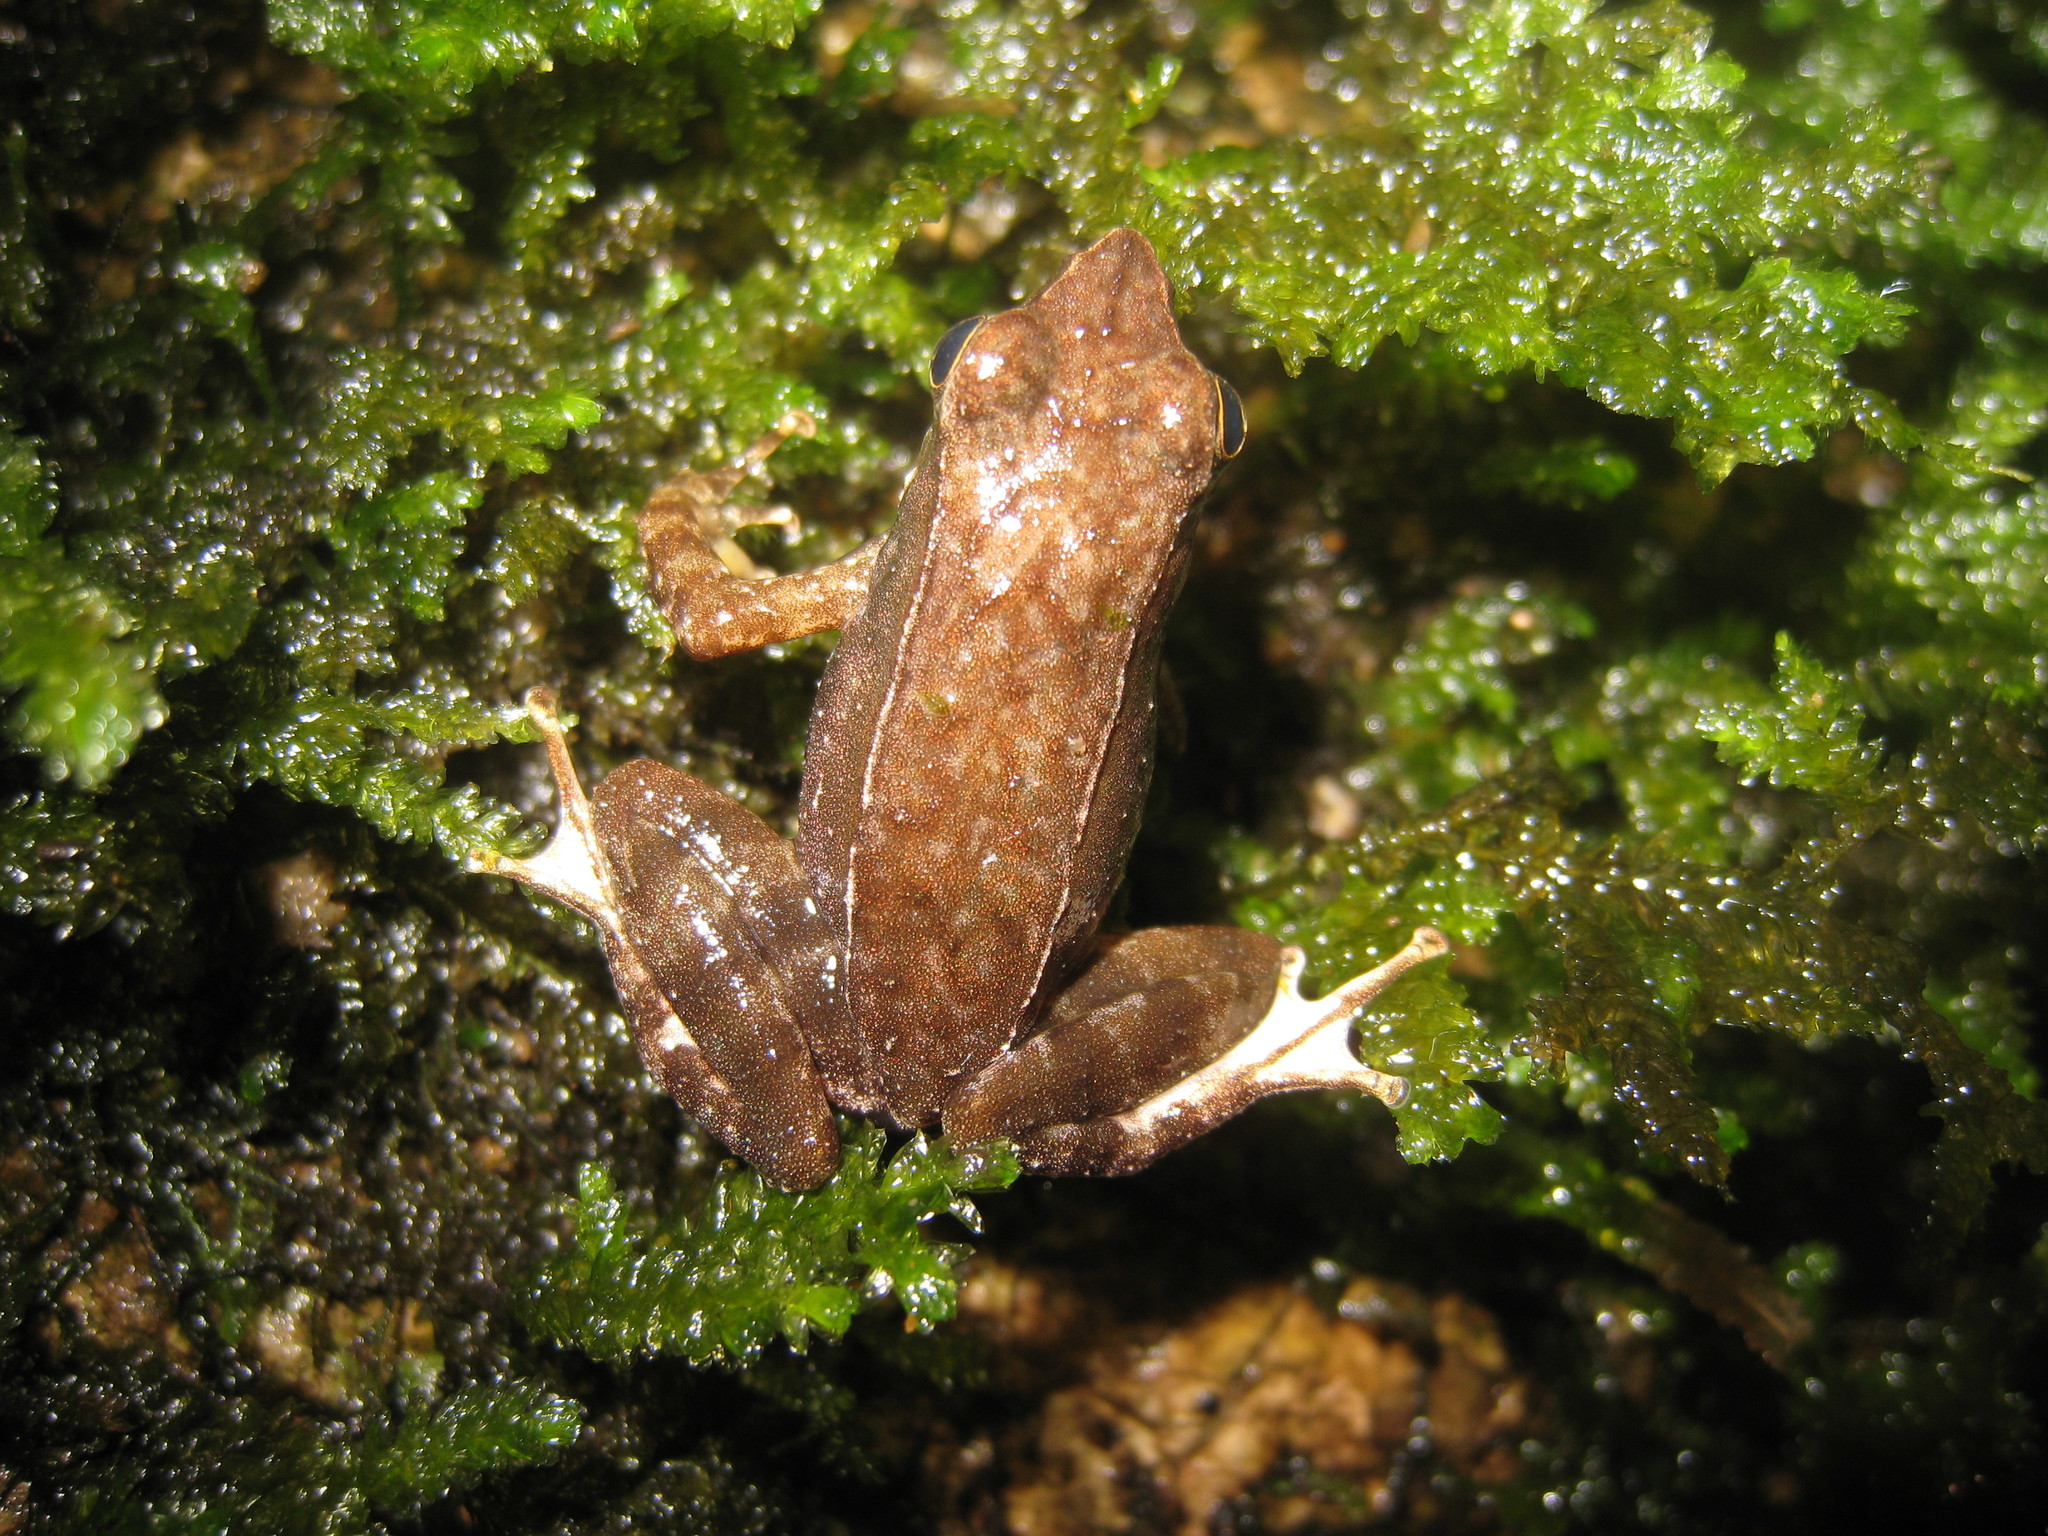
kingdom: Animalia
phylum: Chordata
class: Amphibia
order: Anura
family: Micrixalidae
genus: Micrixalus
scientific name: Micrixalus adonis
